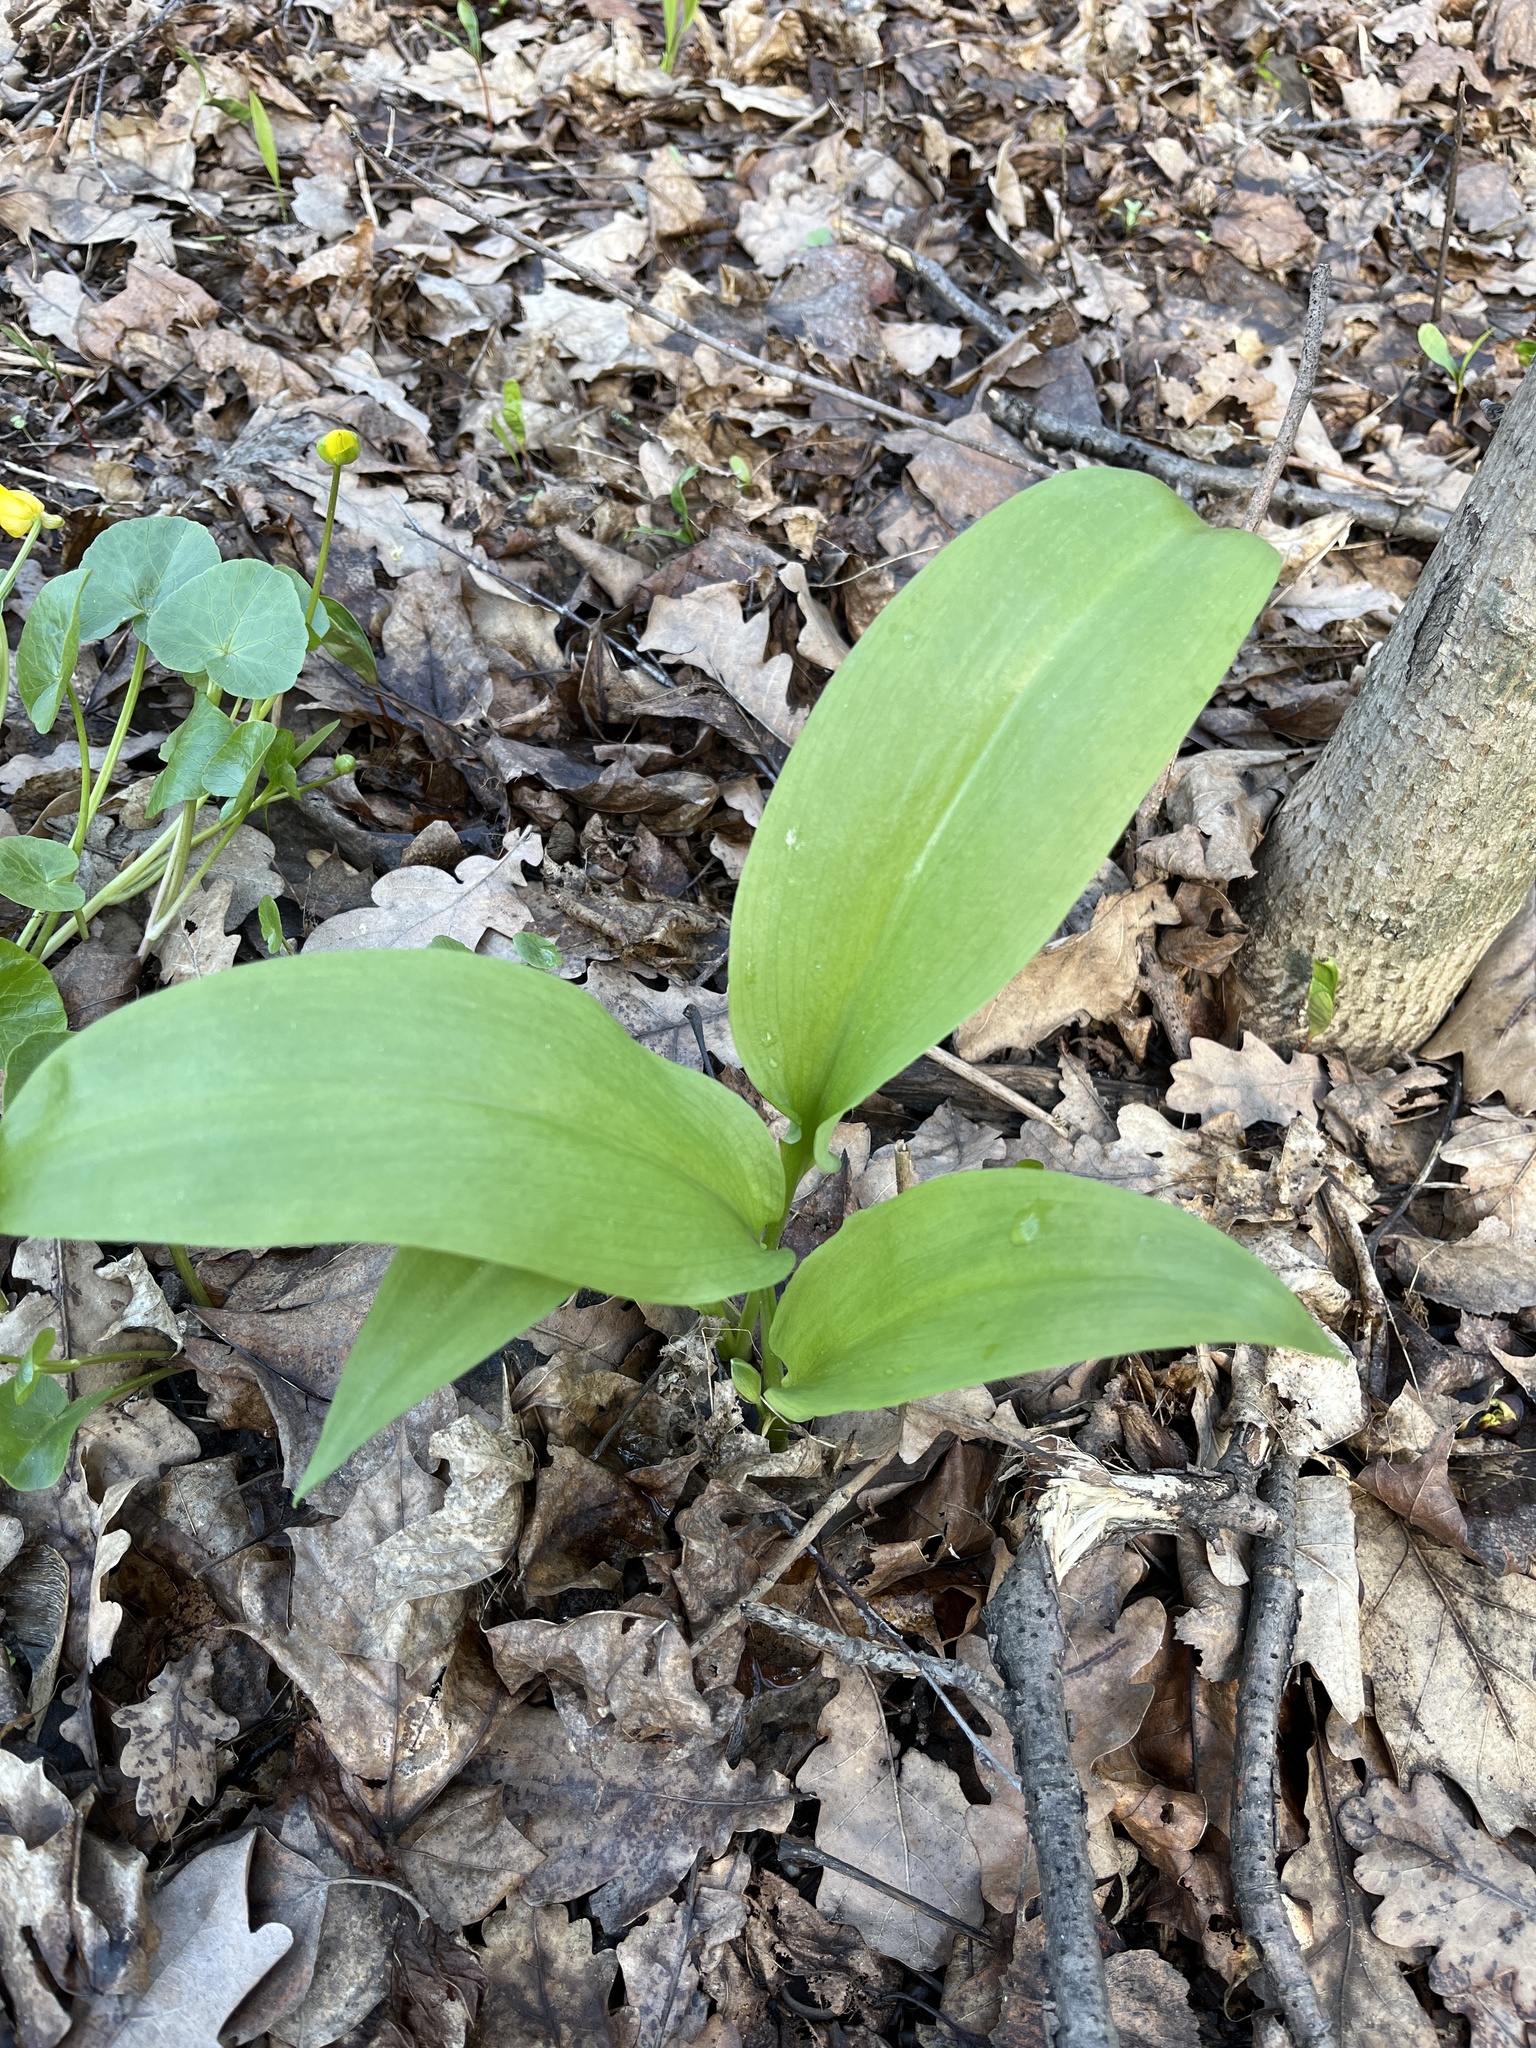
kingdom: Plantae
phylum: Tracheophyta
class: Liliopsida
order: Asparagales
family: Amaryllidaceae
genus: Allium
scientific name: Allium ursinum
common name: Ramsons
